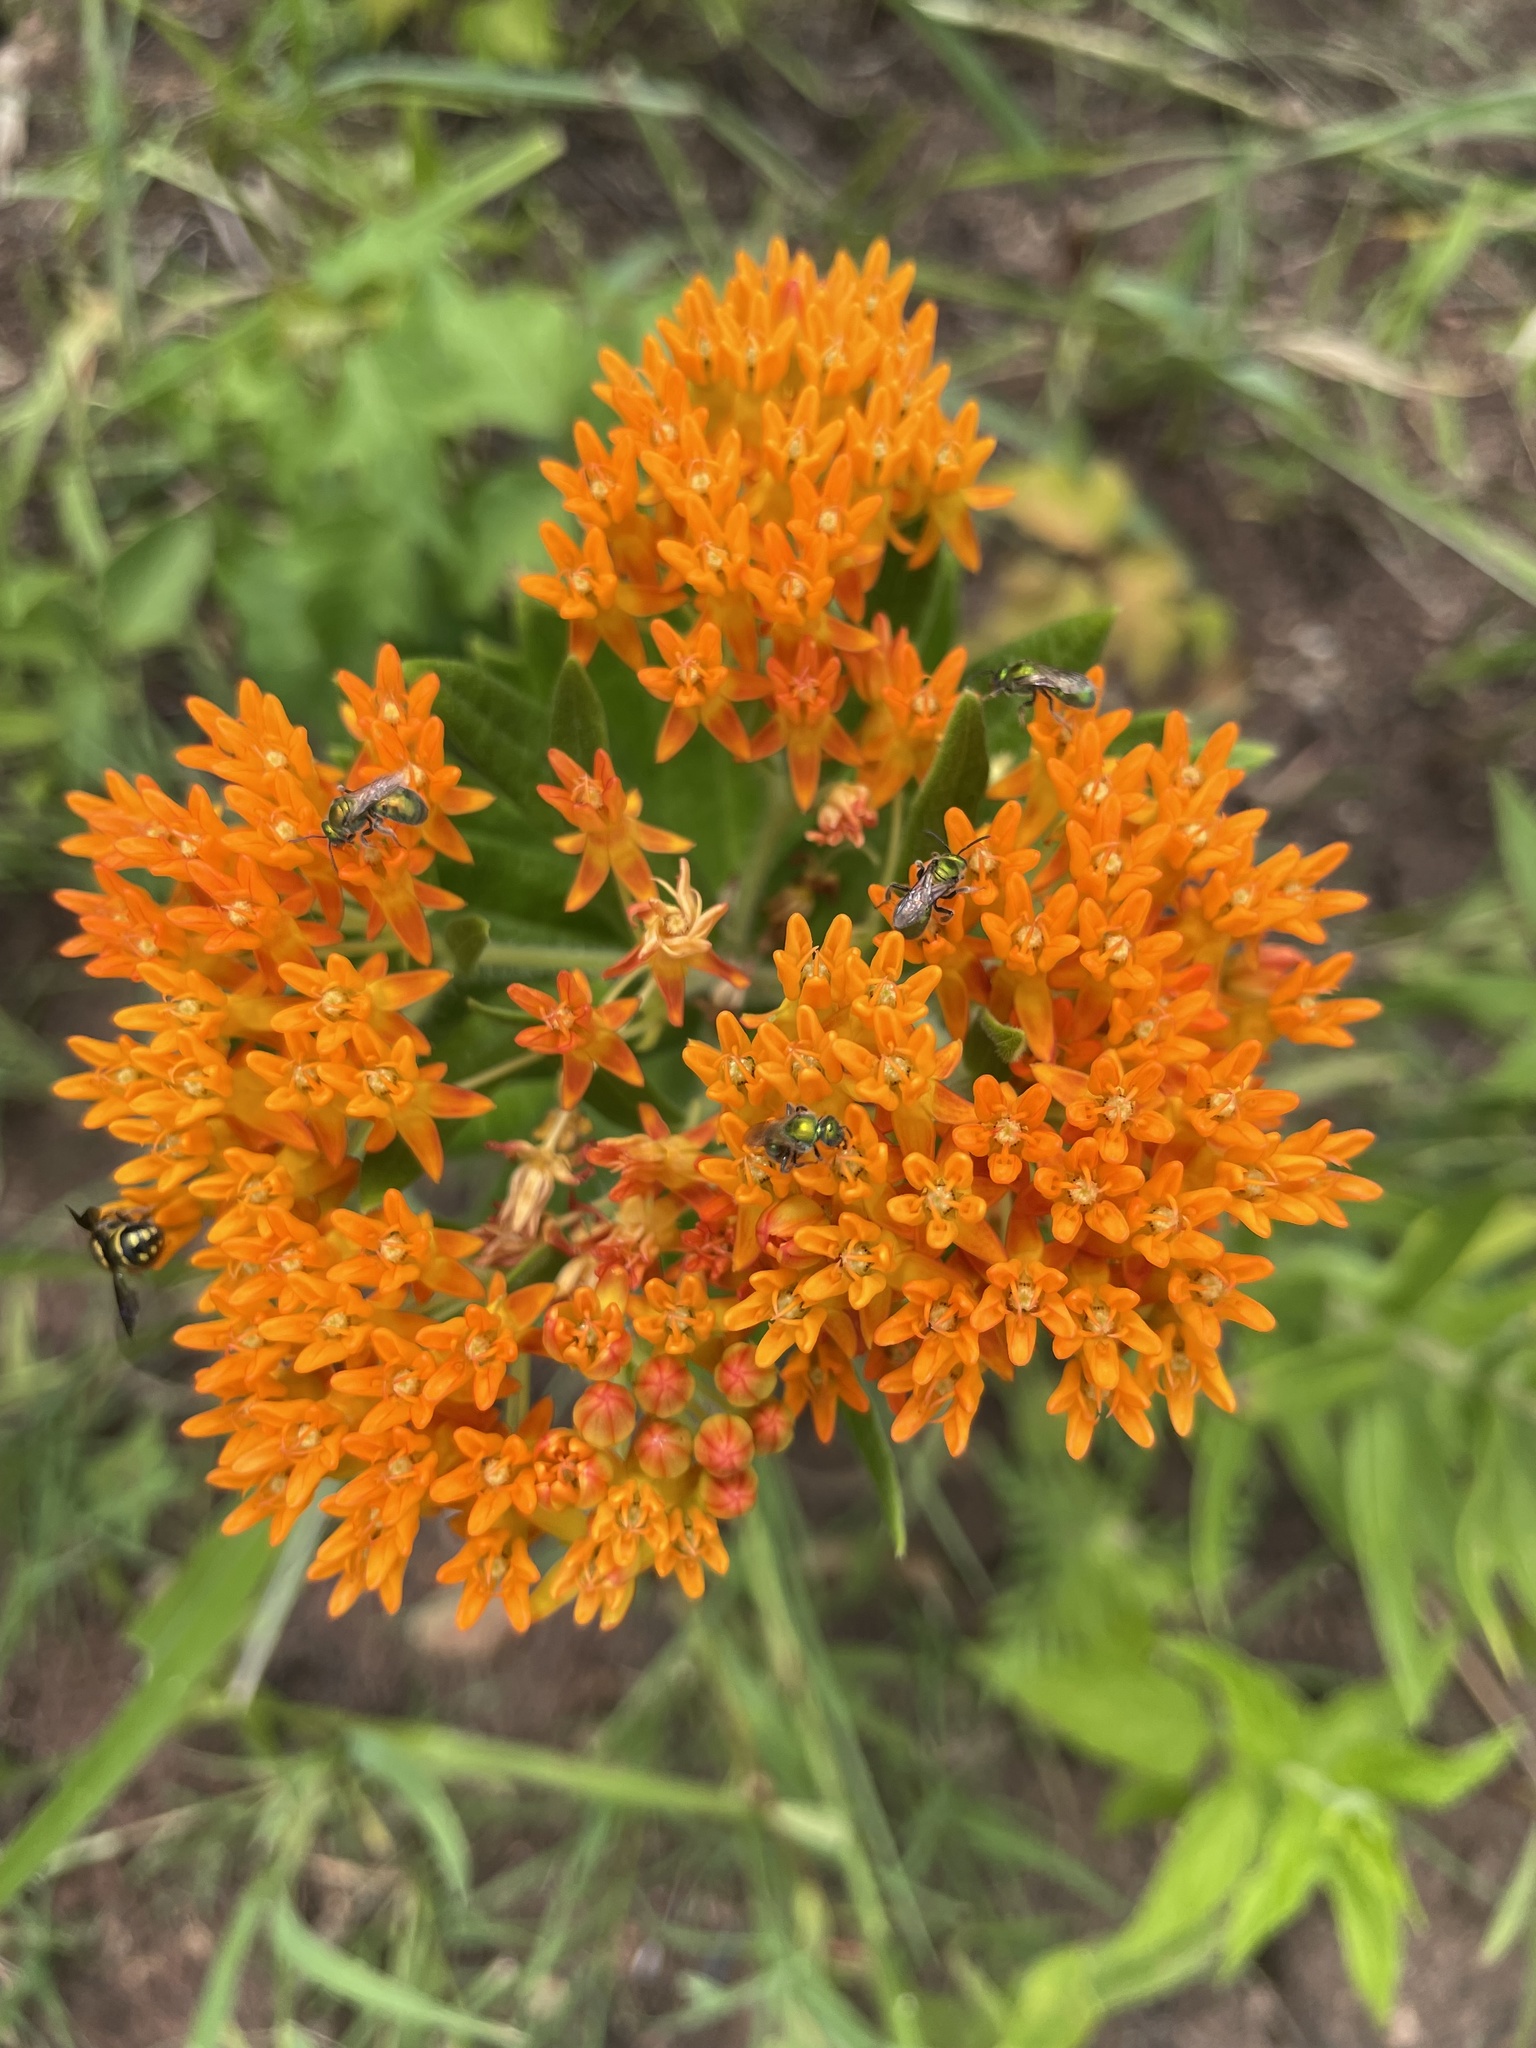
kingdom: Plantae
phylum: Tracheophyta
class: Magnoliopsida
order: Gentianales
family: Apocynaceae
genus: Asclepias
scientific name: Asclepias tuberosa
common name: Butterfly milkweed
